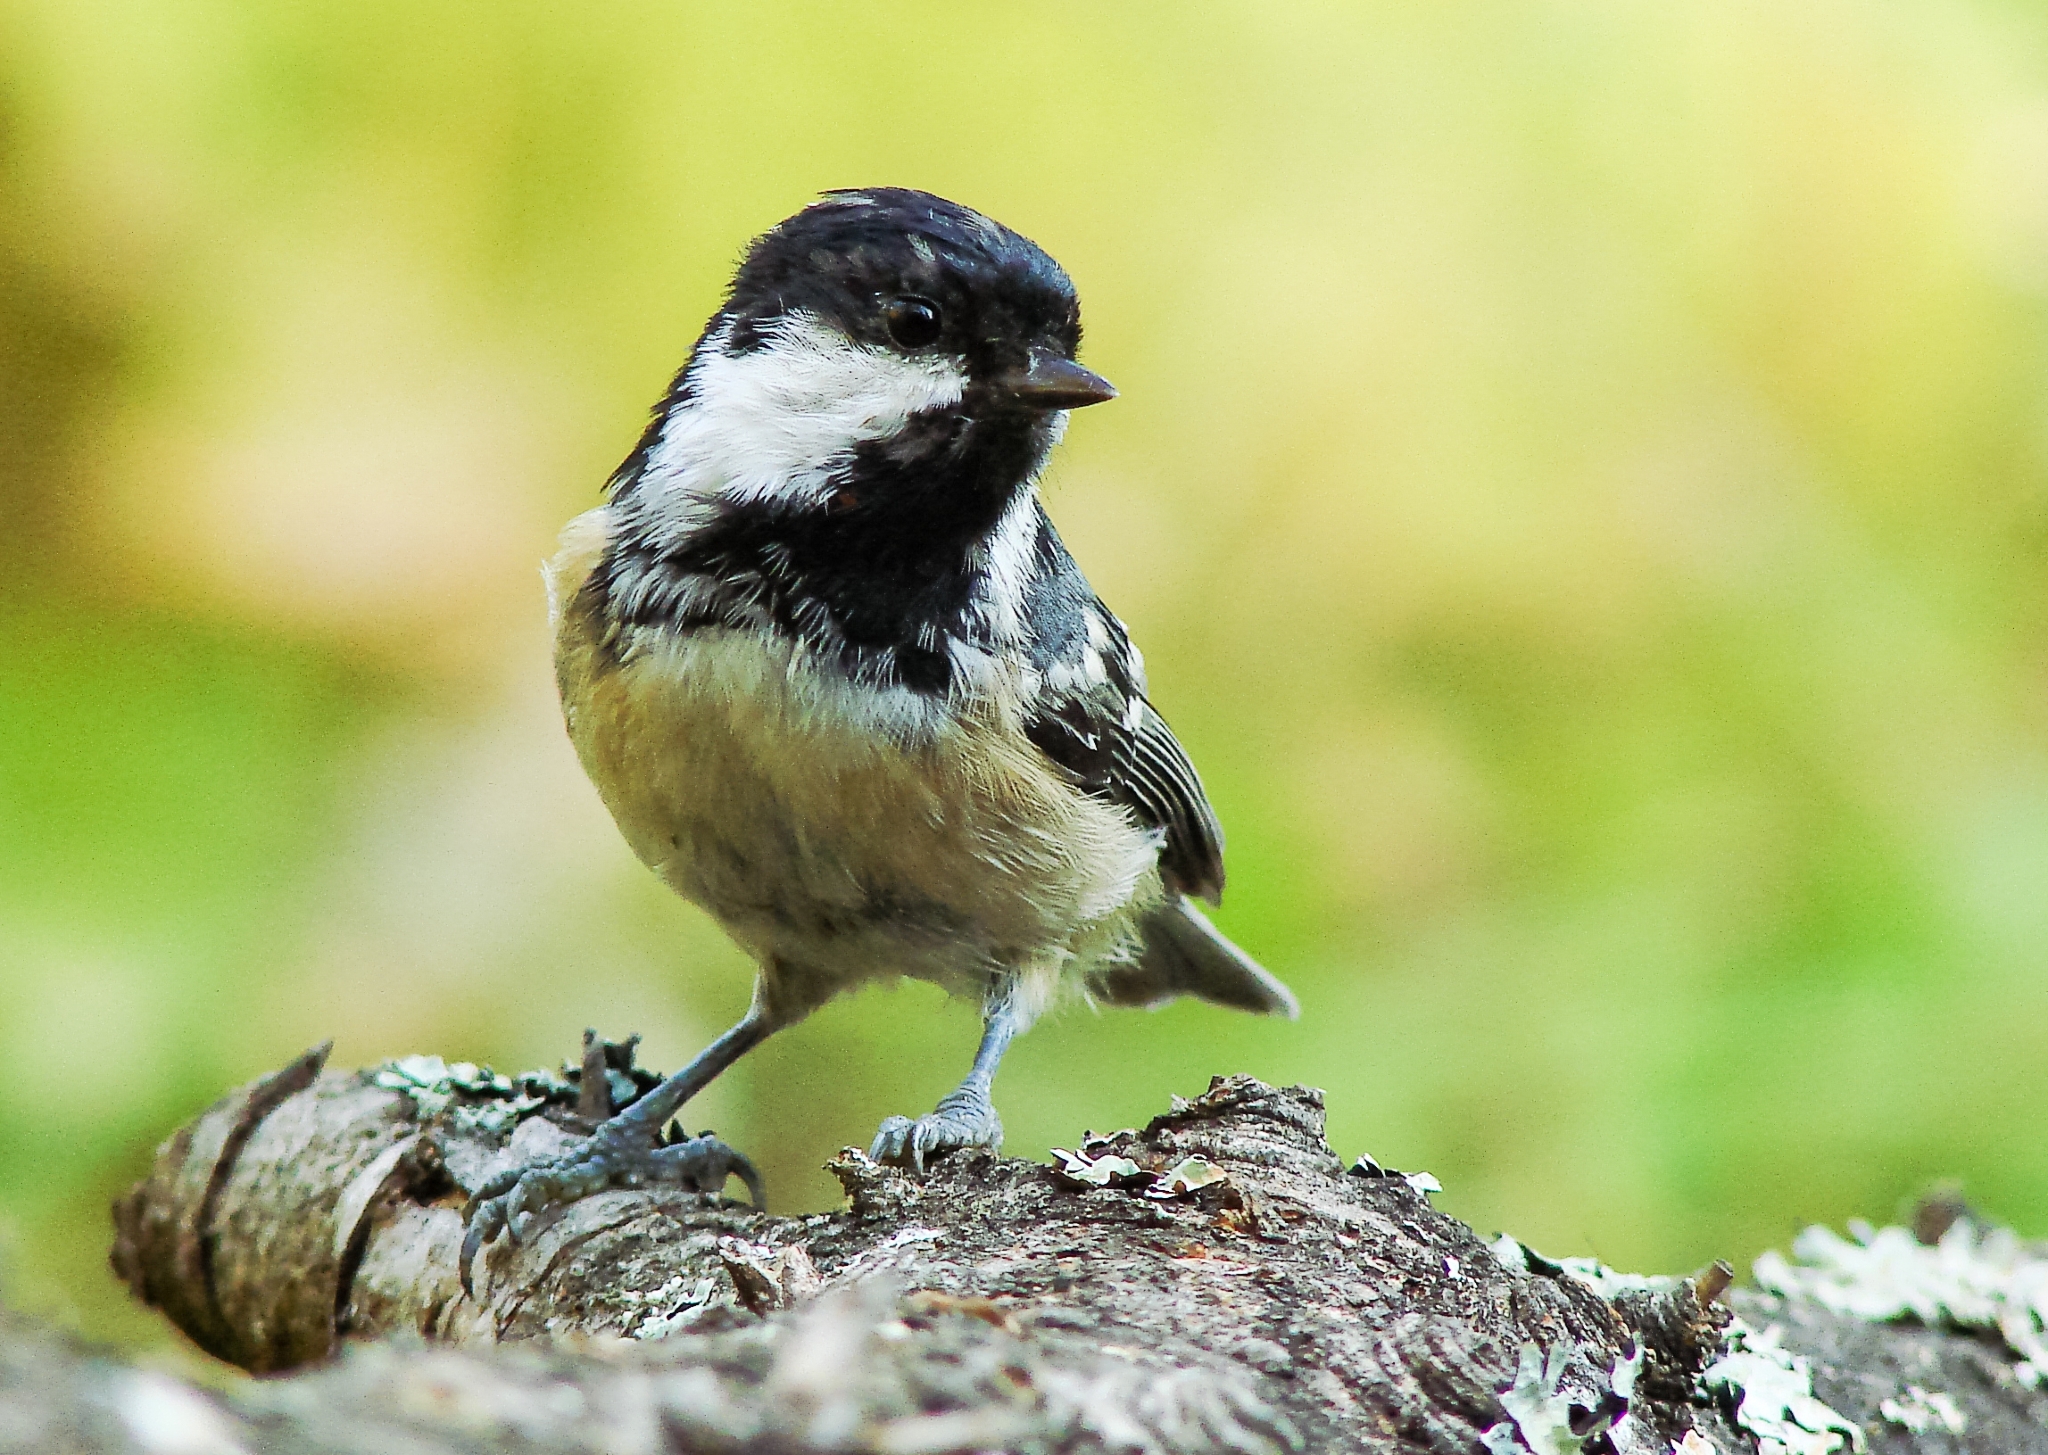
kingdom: Animalia
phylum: Chordata
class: Aves
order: Passeriformes
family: Paridae
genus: Periparus
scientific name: Periparus ater
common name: Coal tit
